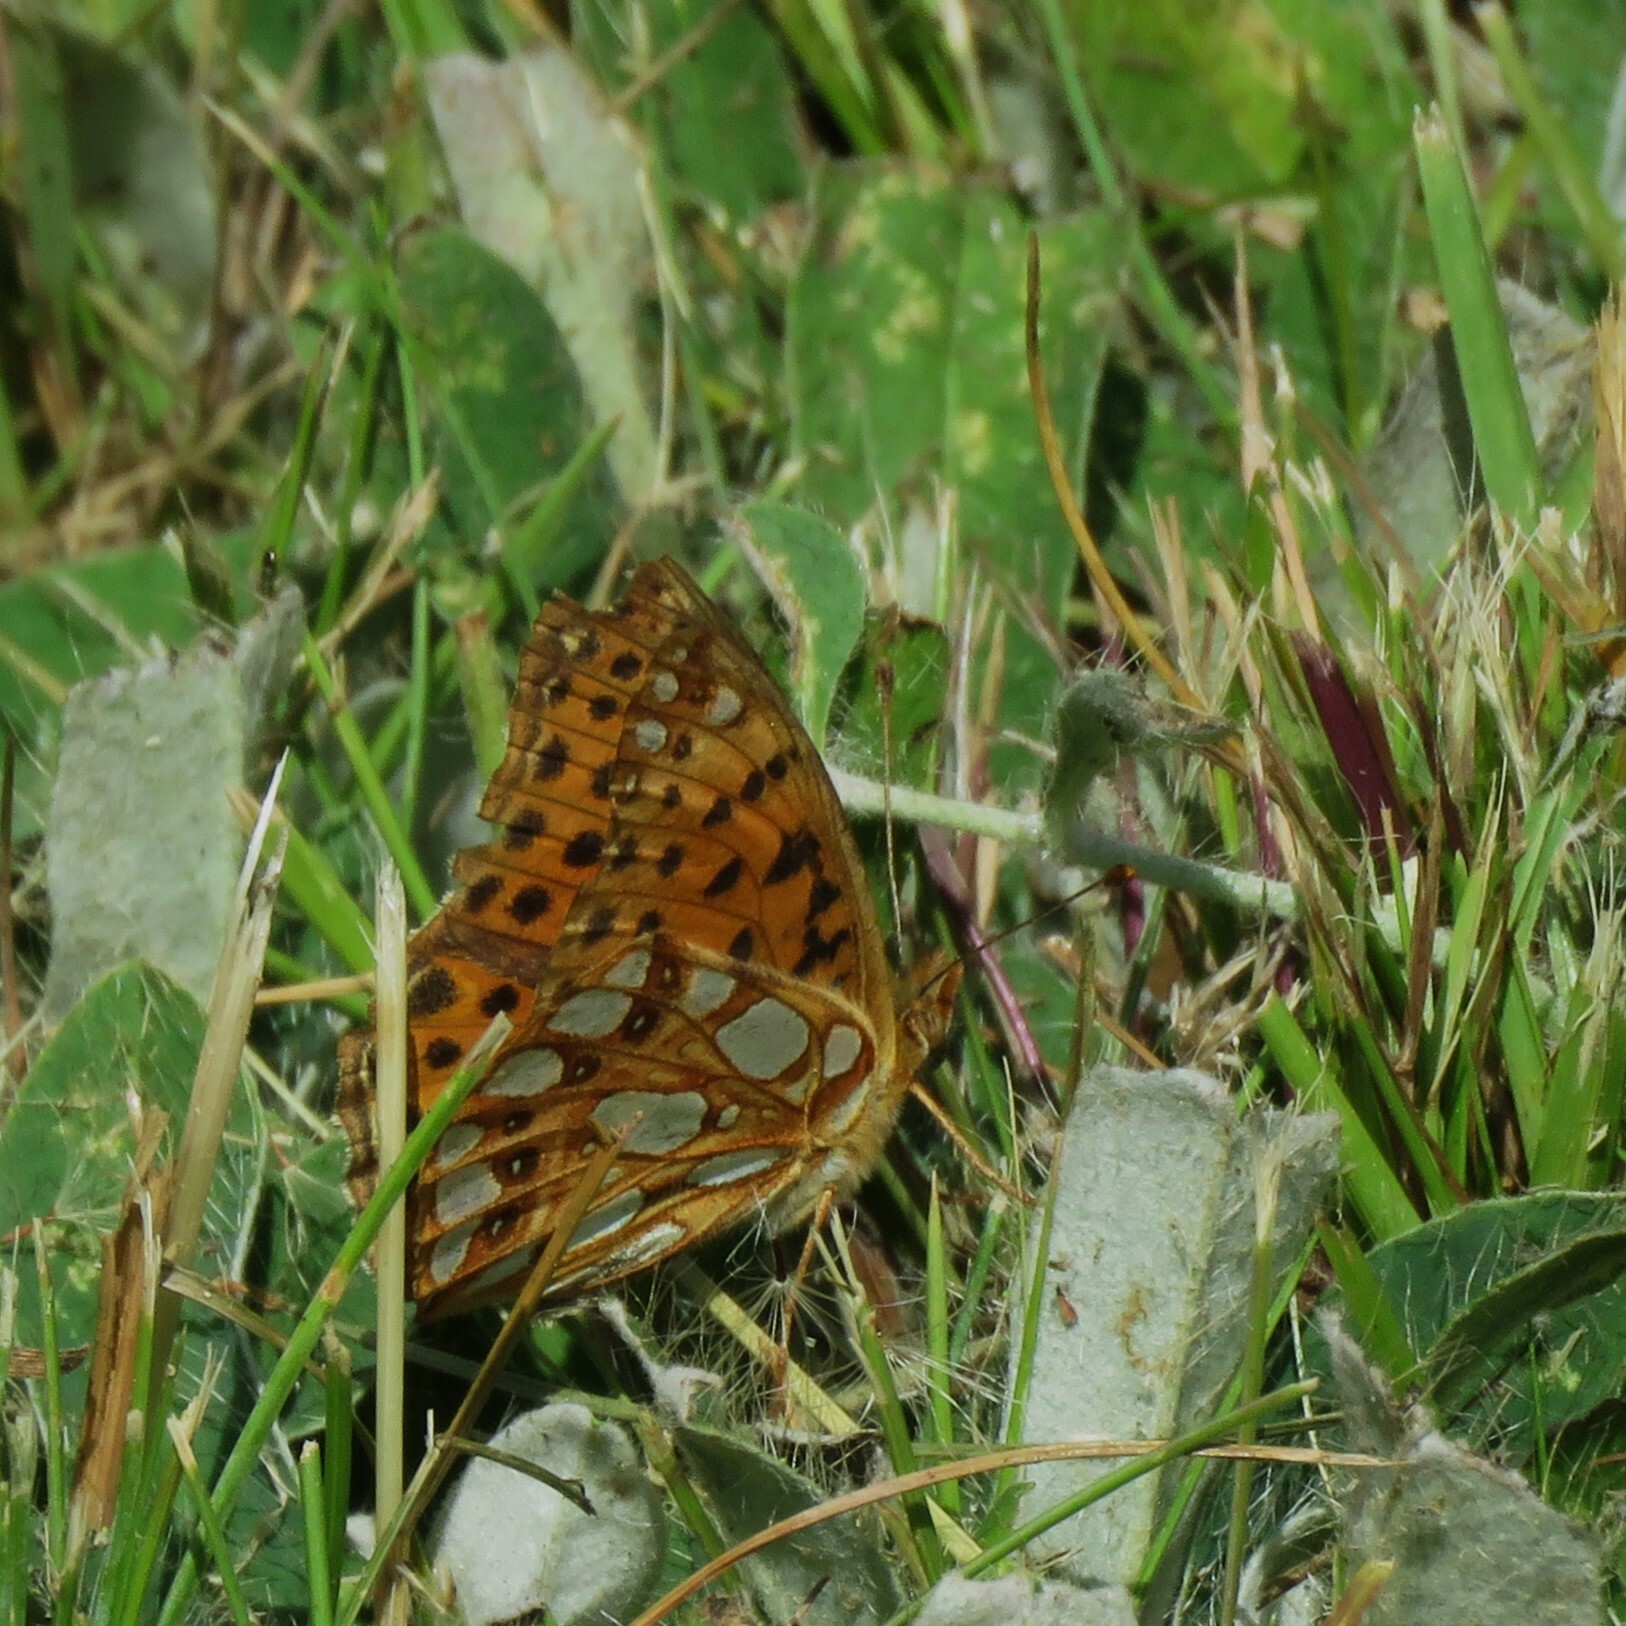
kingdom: Animalia
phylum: Arthropoda
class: Insecta
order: Lepidoptera
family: Nymphalidae
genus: Issoria
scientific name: Issoria lathonia
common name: Queen of spain fritillary
